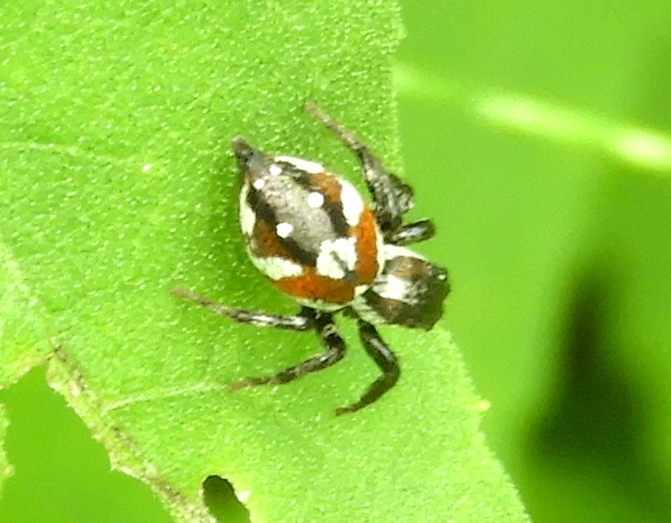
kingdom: Animalia
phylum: Arthropoda
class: Arachnida
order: Araneae
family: Salticidae
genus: Nycerella
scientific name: Nycerella
